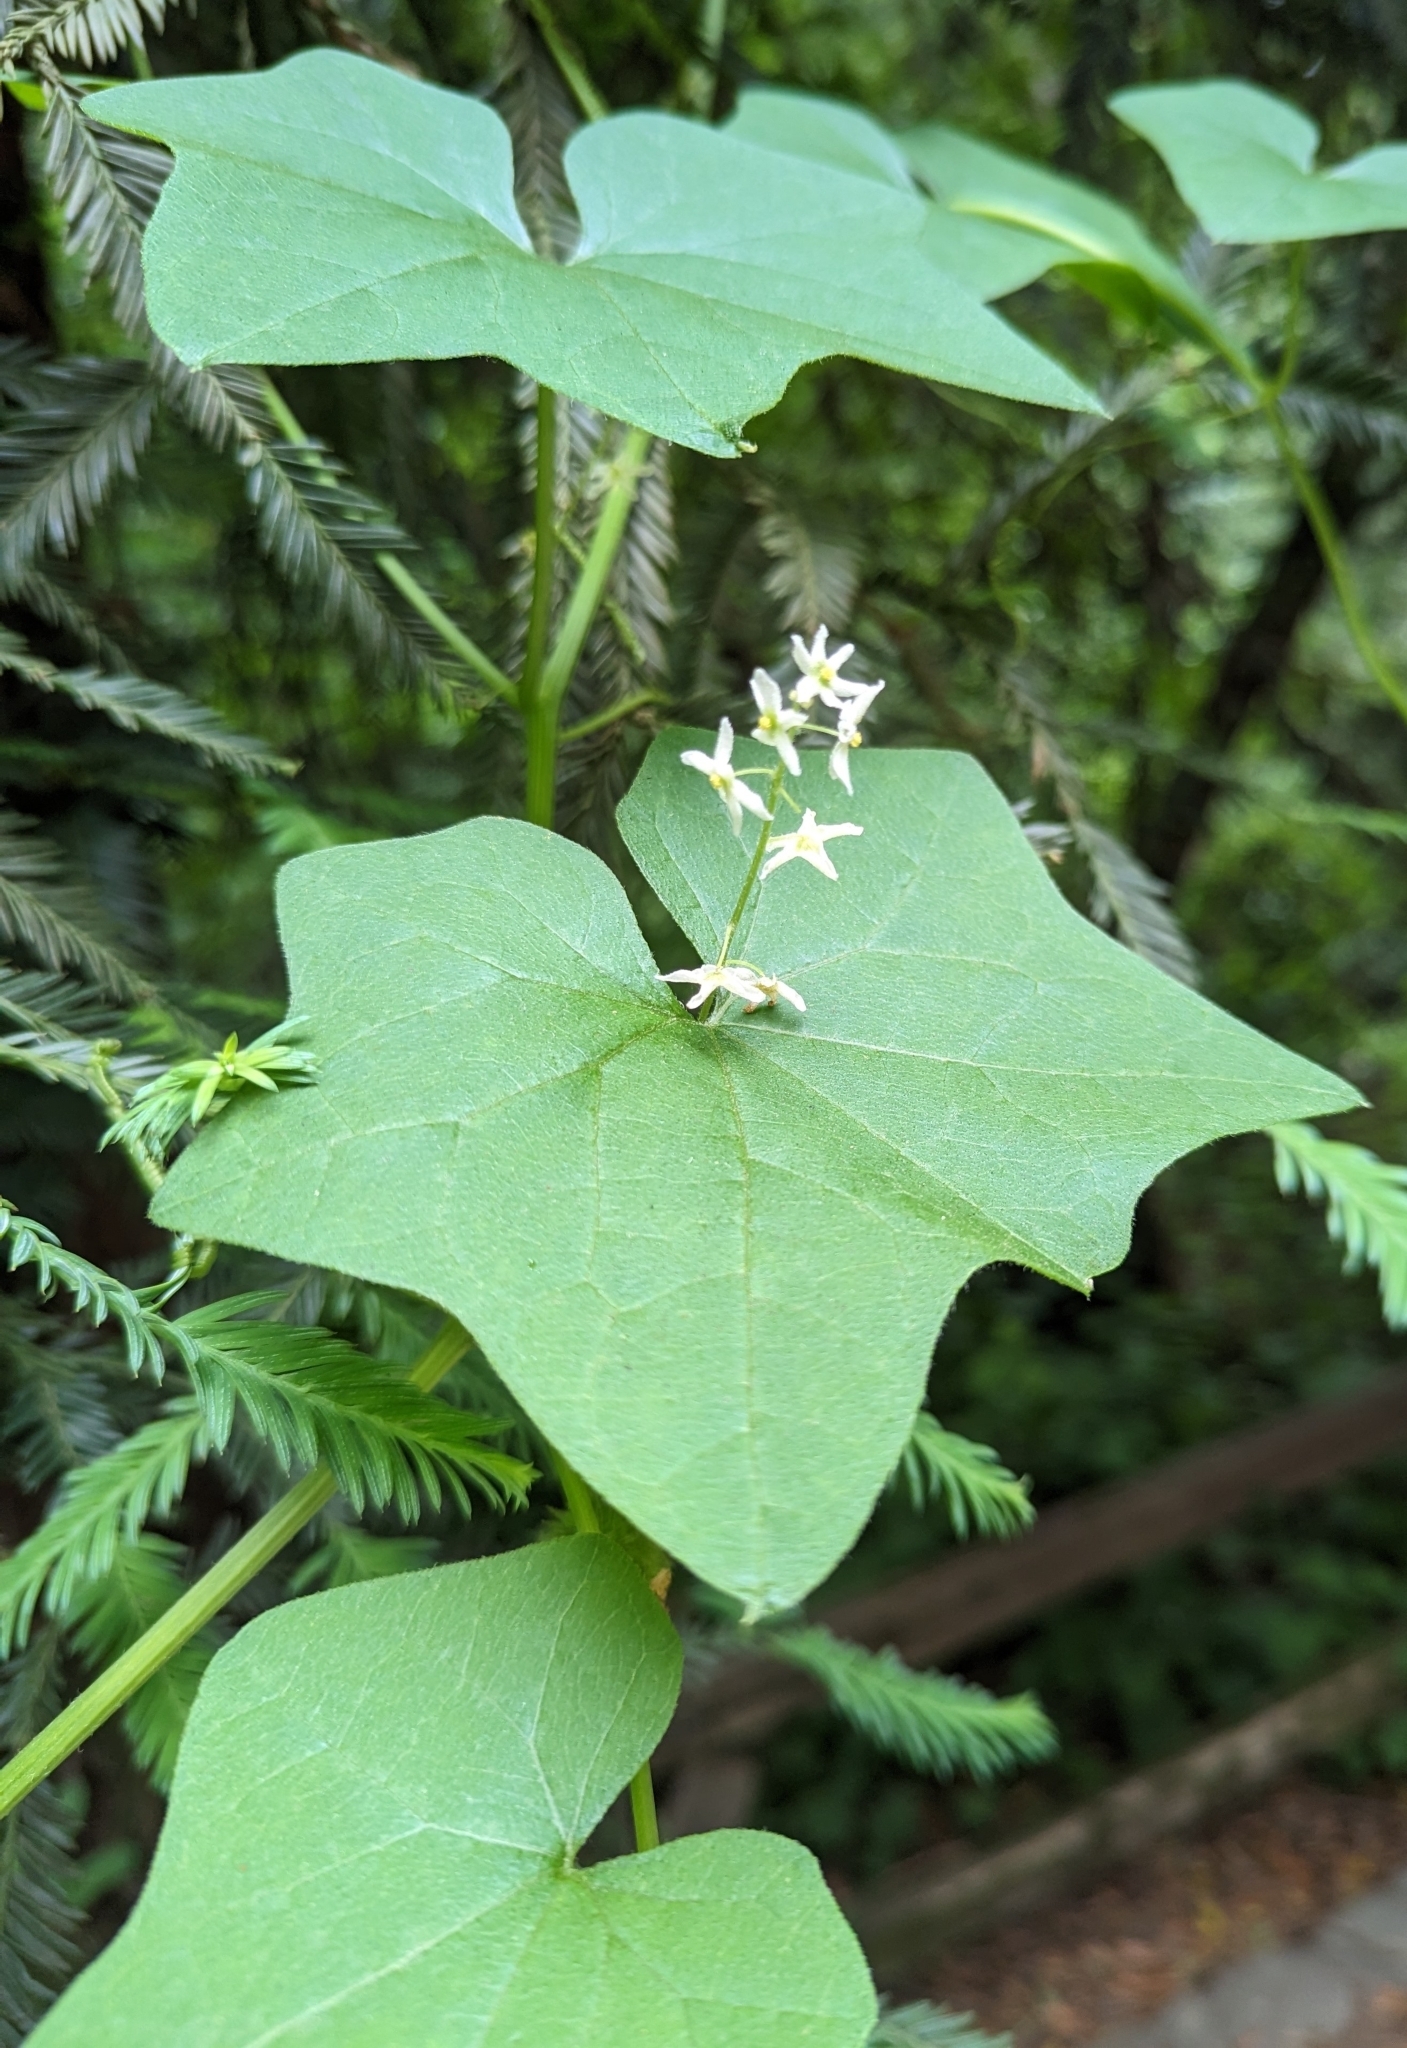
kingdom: Plantae
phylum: Tracheophyta
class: Magnoliopsida
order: Cucurbitales
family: Cucurbitaceae
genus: Marah
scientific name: Marah fabacea
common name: California manroot
